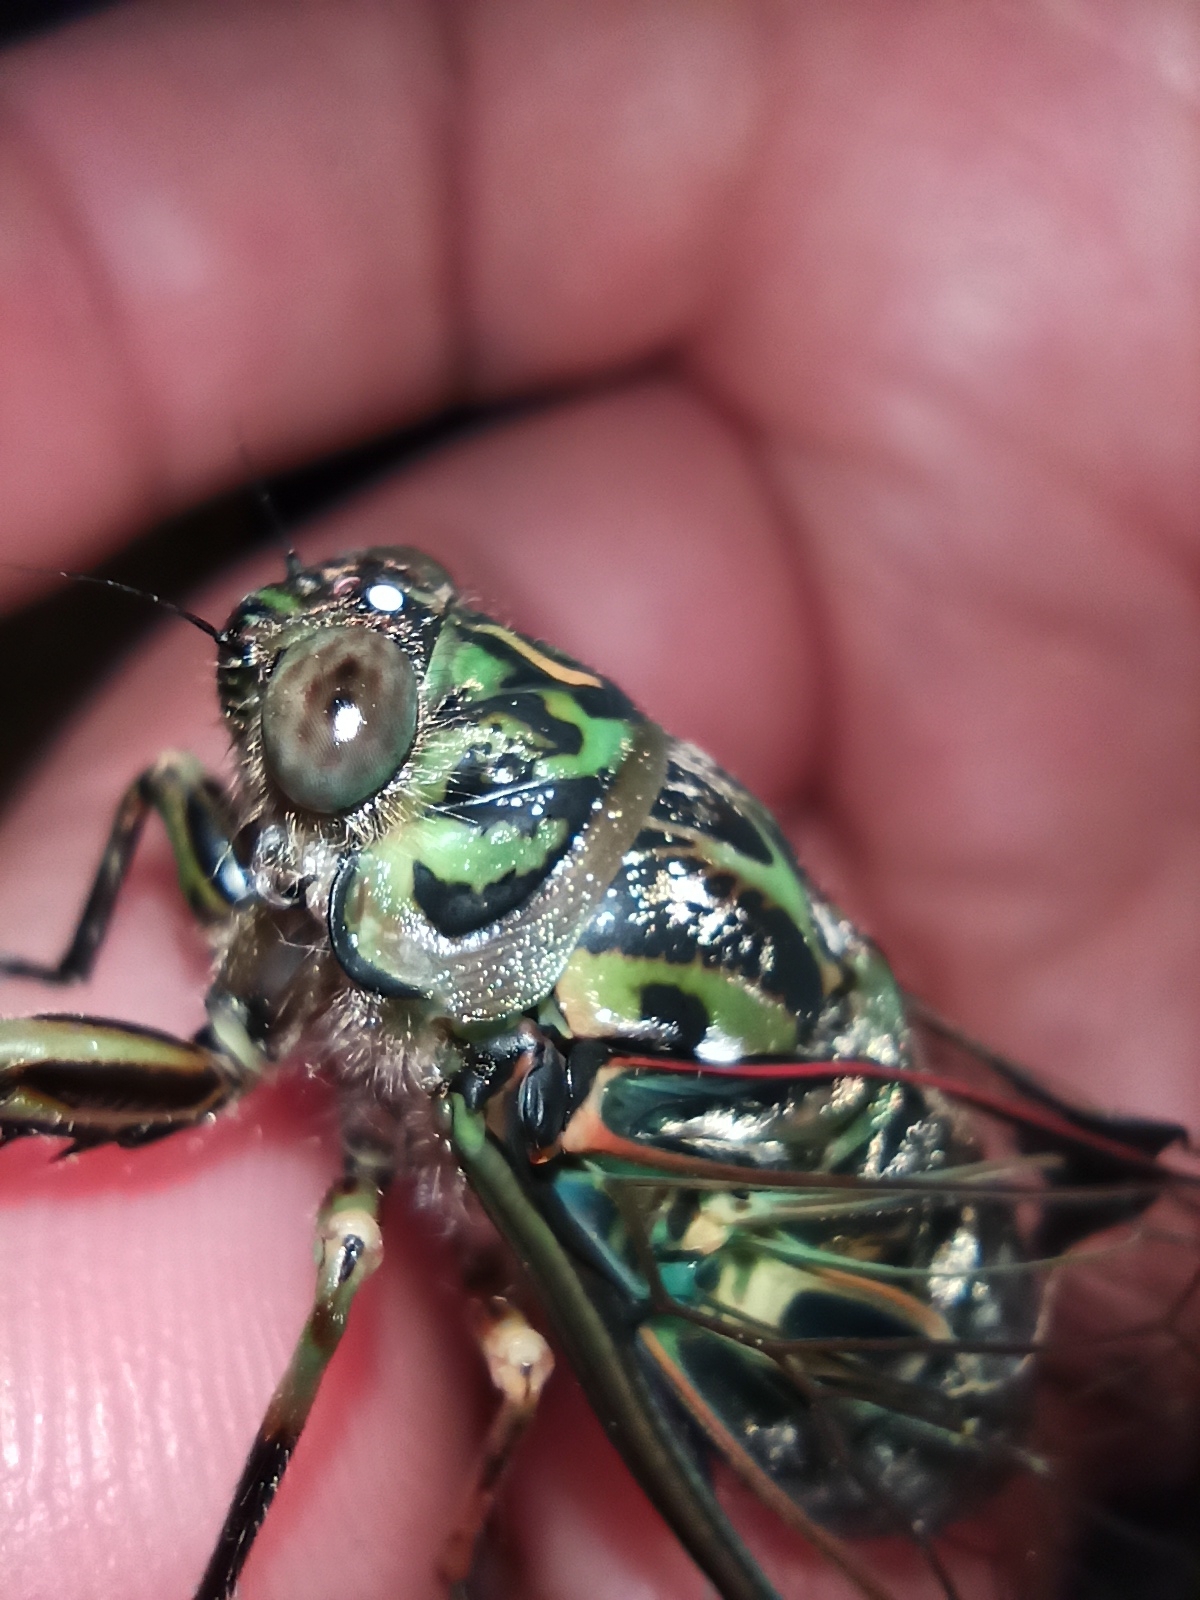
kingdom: Animalia
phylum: Arthropoda
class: Insecta
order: Hemiptera
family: Cicadidae
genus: Amphipsalta
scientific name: Amphipsalta zelandica
